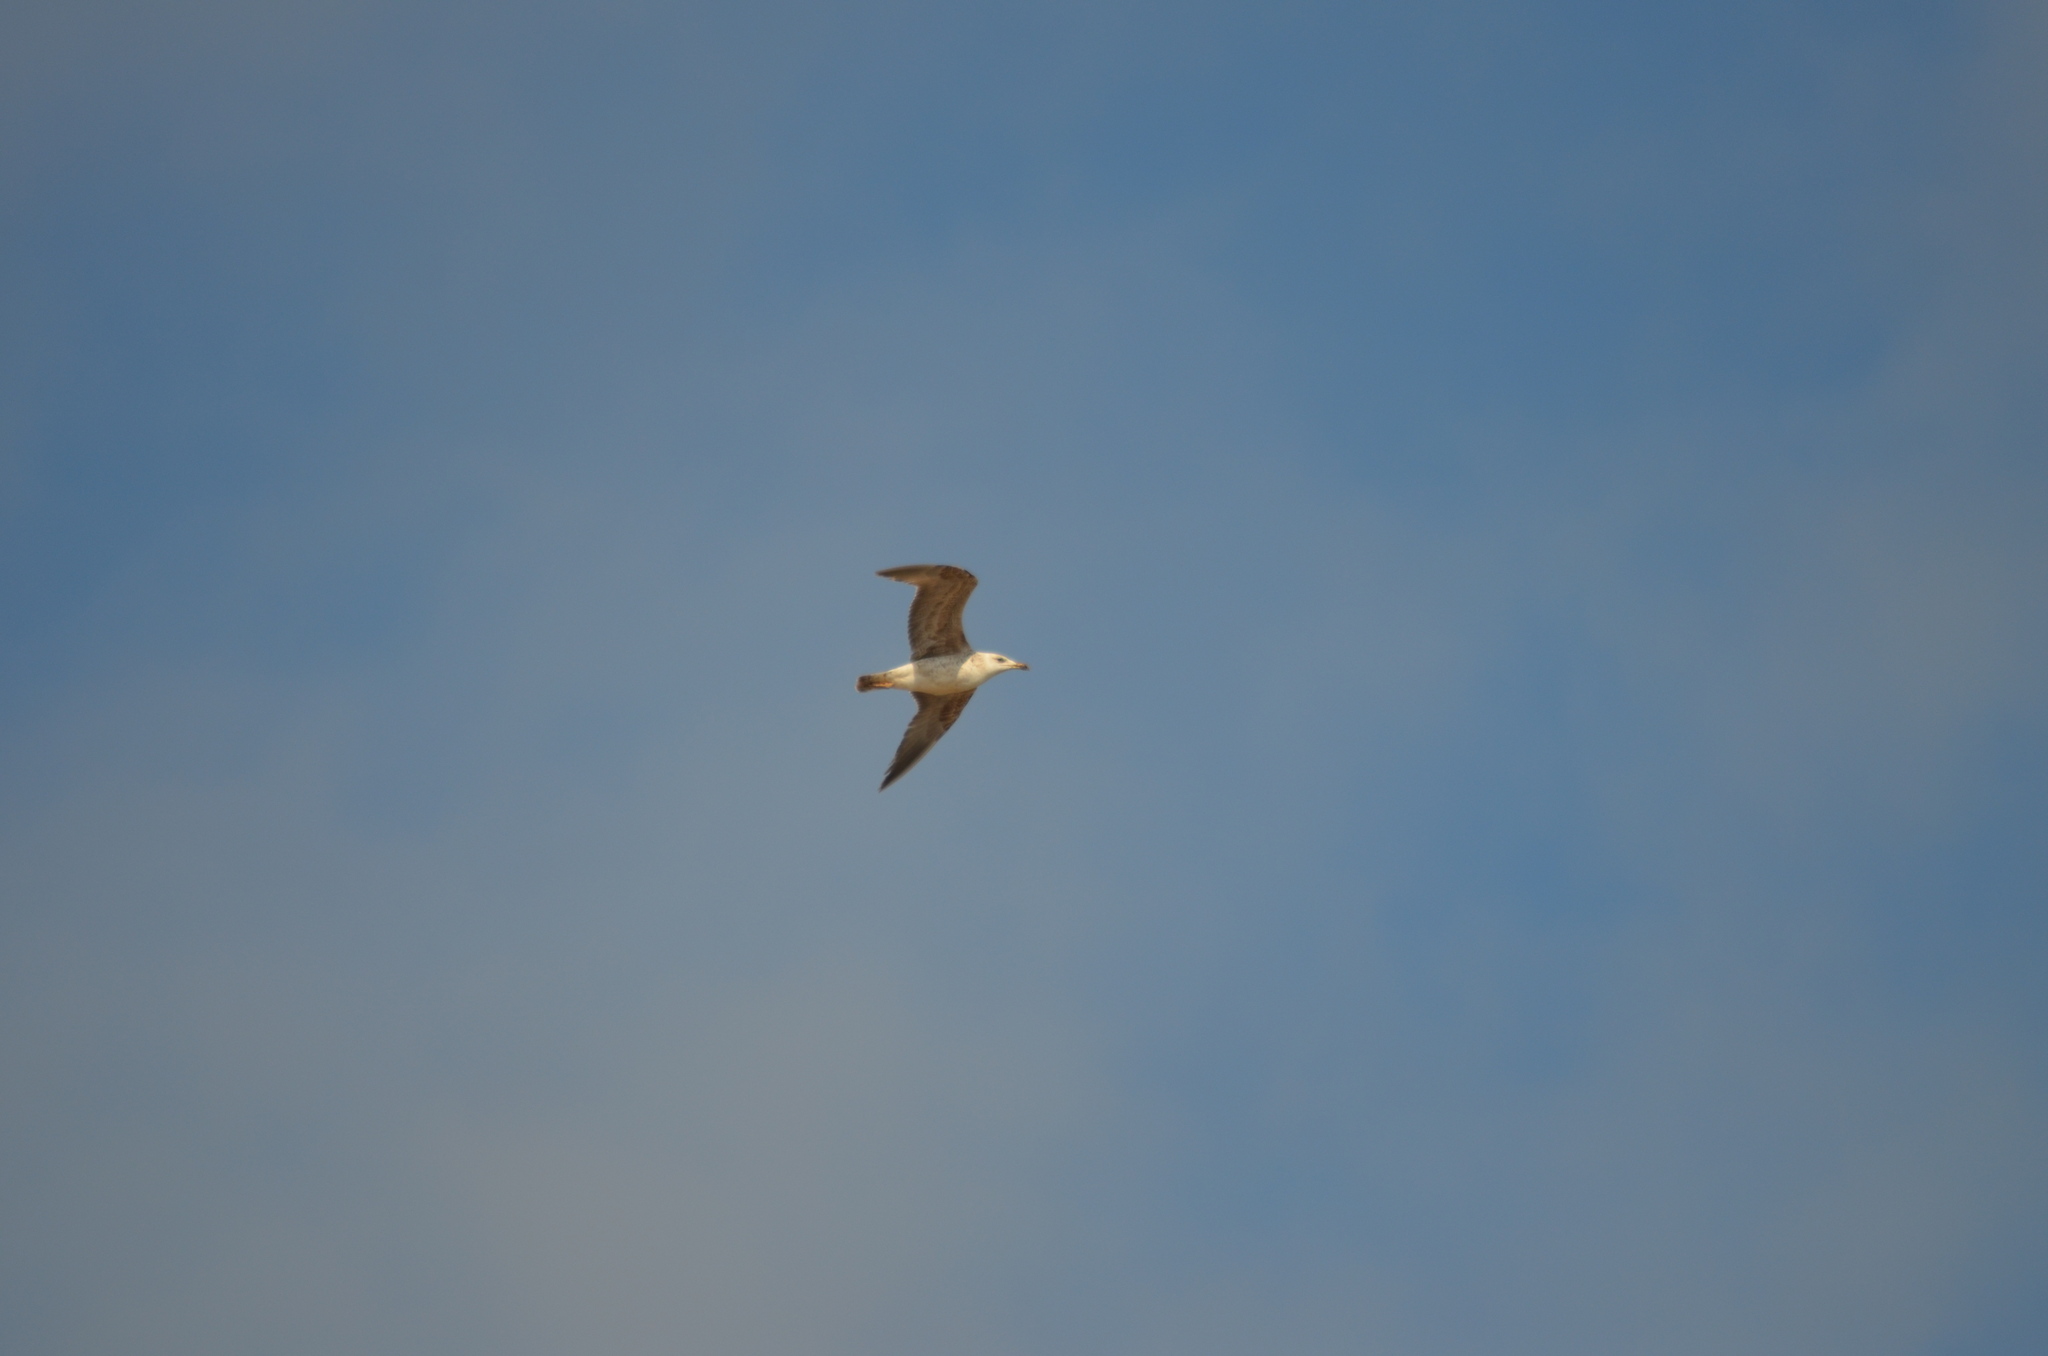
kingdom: Animalia
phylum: Chordata
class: Aves
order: Charadriiformes
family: Laridae
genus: Larus
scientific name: Larus michahellis
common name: Yellow-legged gull
